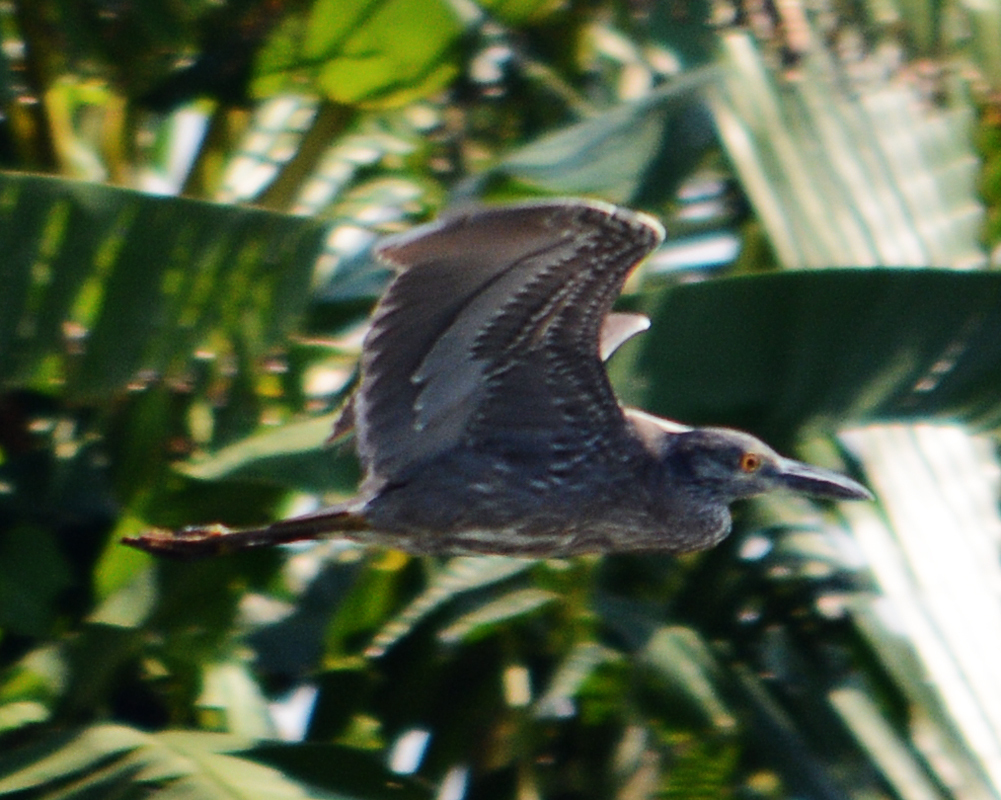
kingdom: Animalia
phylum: Chordata
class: Aves
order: Pelecaniformes
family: Ardeidae
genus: Nyctanassa
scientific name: Nyctanassa violacea
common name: Yellow-crowned night heron
